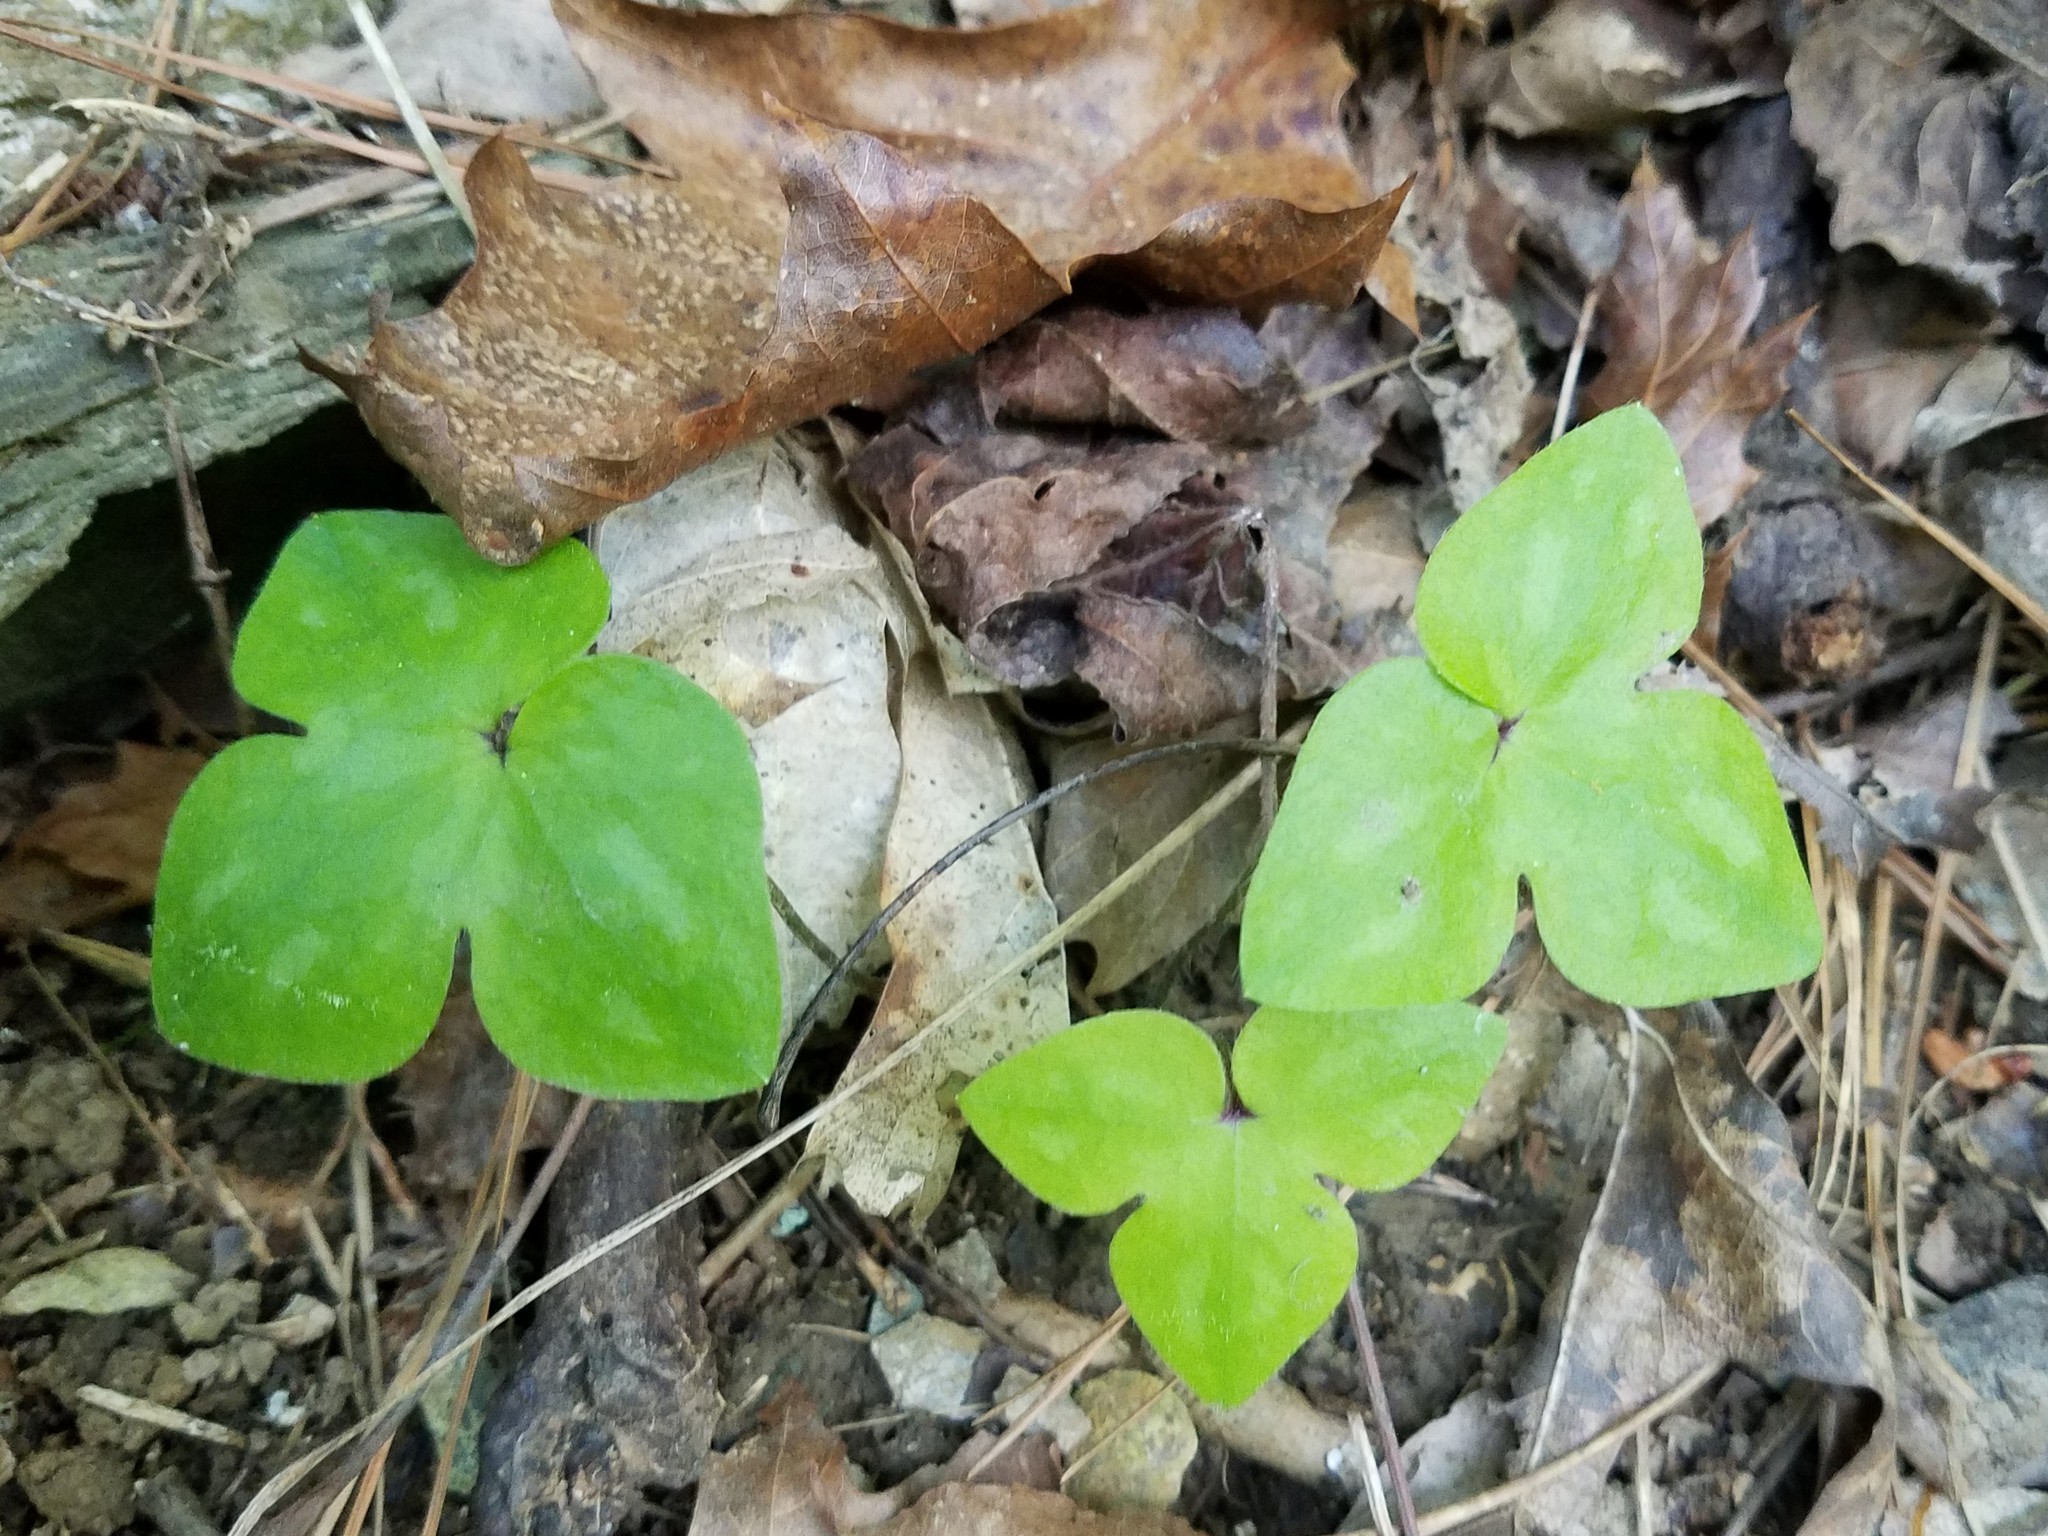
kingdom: Plantae
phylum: Tracheophyta
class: Magnoliopsida
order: Ranunculales
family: Ranunculaceae
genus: Hepatica
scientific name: Hepatica acutiloba
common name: Sharp-lobed hepatica
